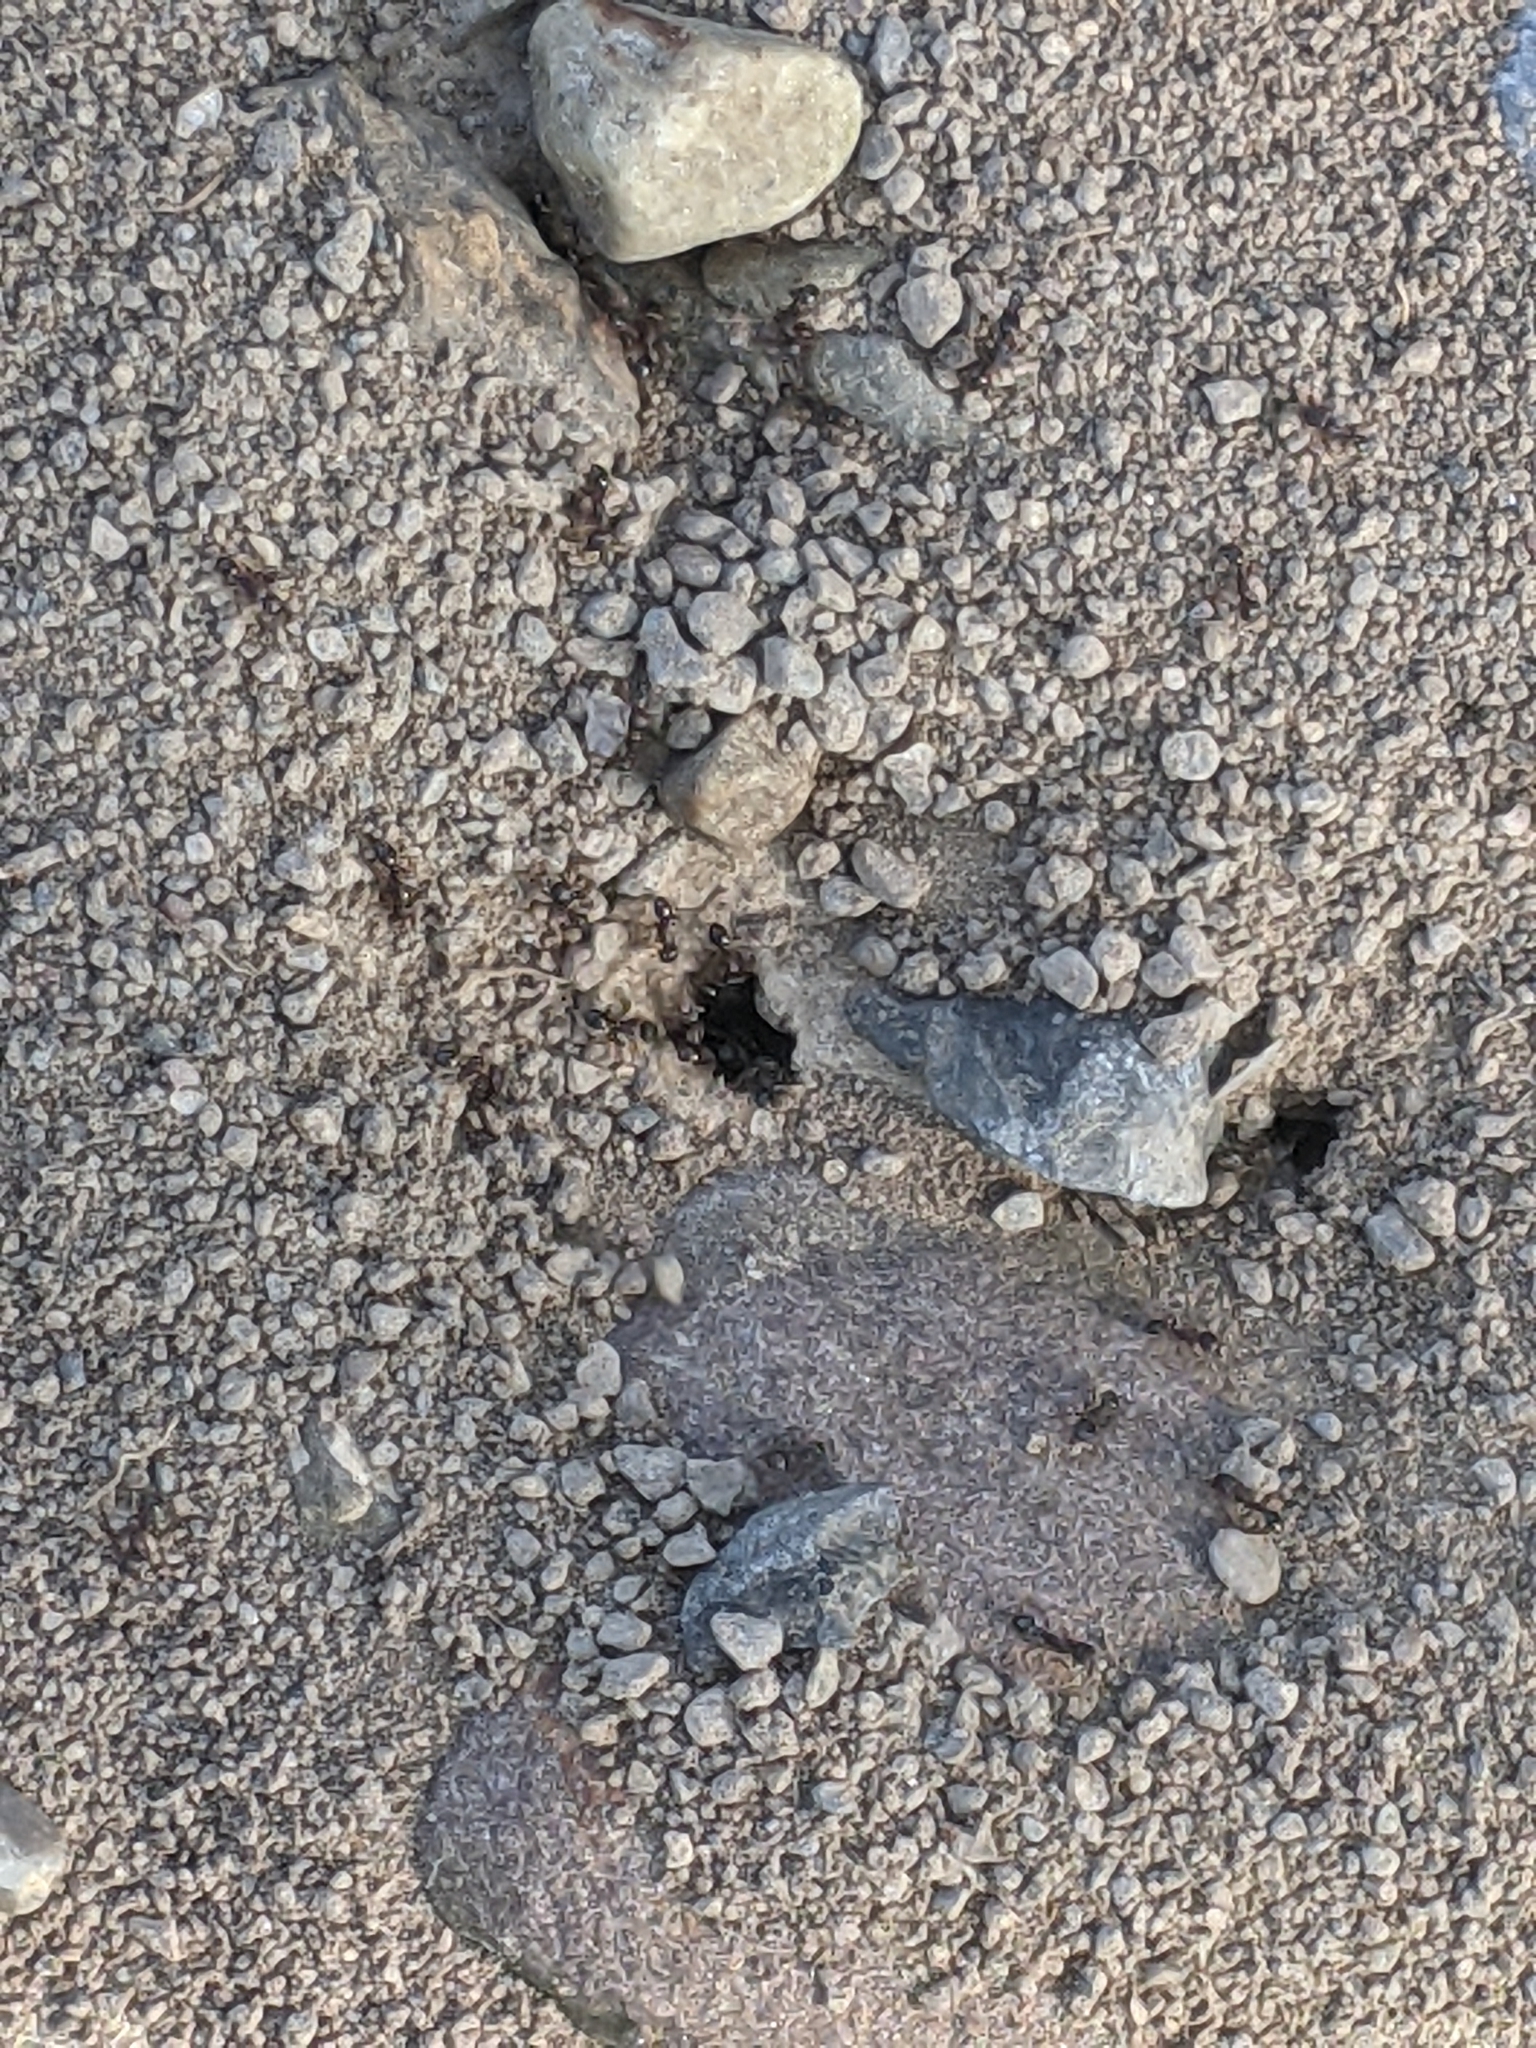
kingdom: Animalia
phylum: Arthropoda
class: Insecta
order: Hymenoptera
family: Formicidae
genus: Tetramorium
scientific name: Tetramorium immigrans
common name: Pavement ant
